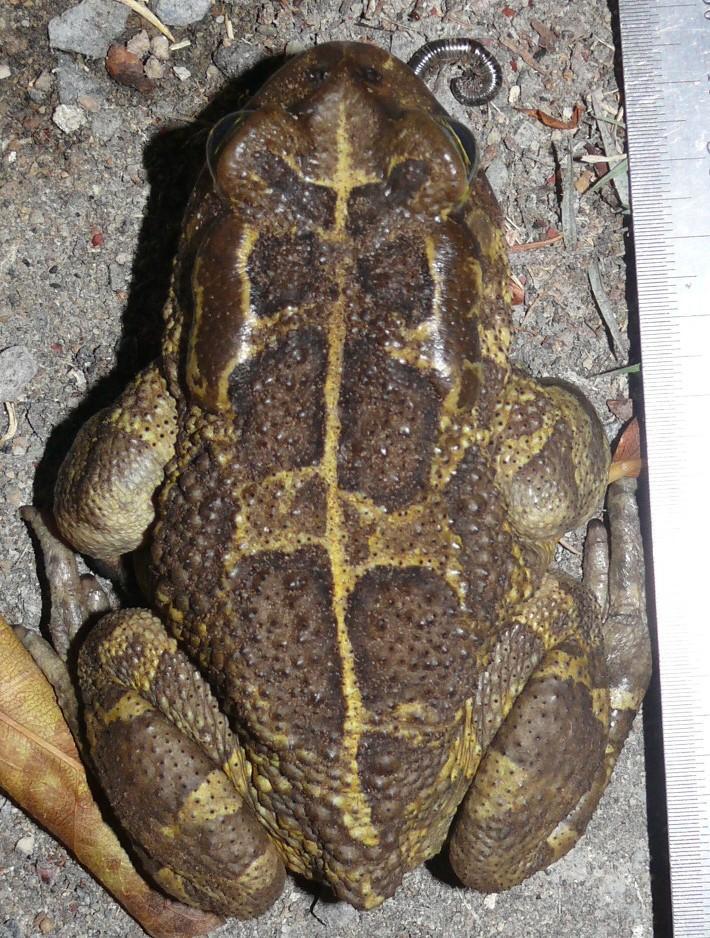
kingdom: Animalia
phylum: Chordata
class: Amphibia
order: Anura
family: Bufonidae
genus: Sclerophrys
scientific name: Sclerophrys pantherina
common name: Panther toad
